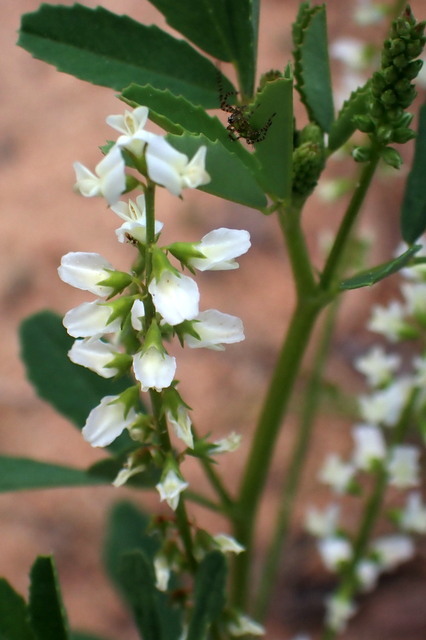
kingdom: Plantae
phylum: Tracheophyta
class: Magnoliopsida
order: Fabales
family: Fabaceae
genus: Melilotus
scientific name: Melilotus albus
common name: White melilot
